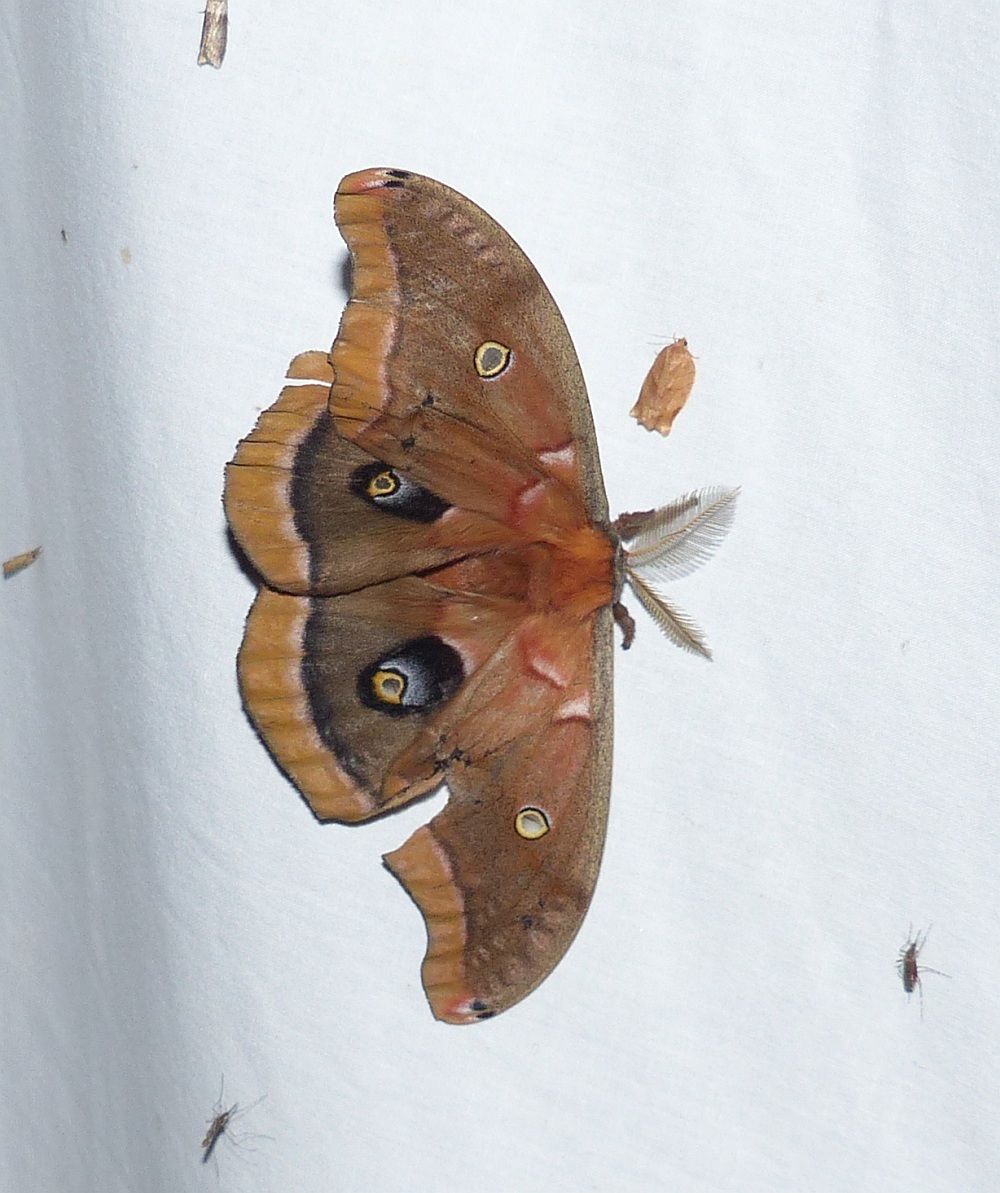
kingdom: Animalia
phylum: Arthropoda
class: Insecta
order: Lepidoptera
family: Saturniidae
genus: Antheraea
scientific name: Antheraea polyphemus
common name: Polyphemus moth
